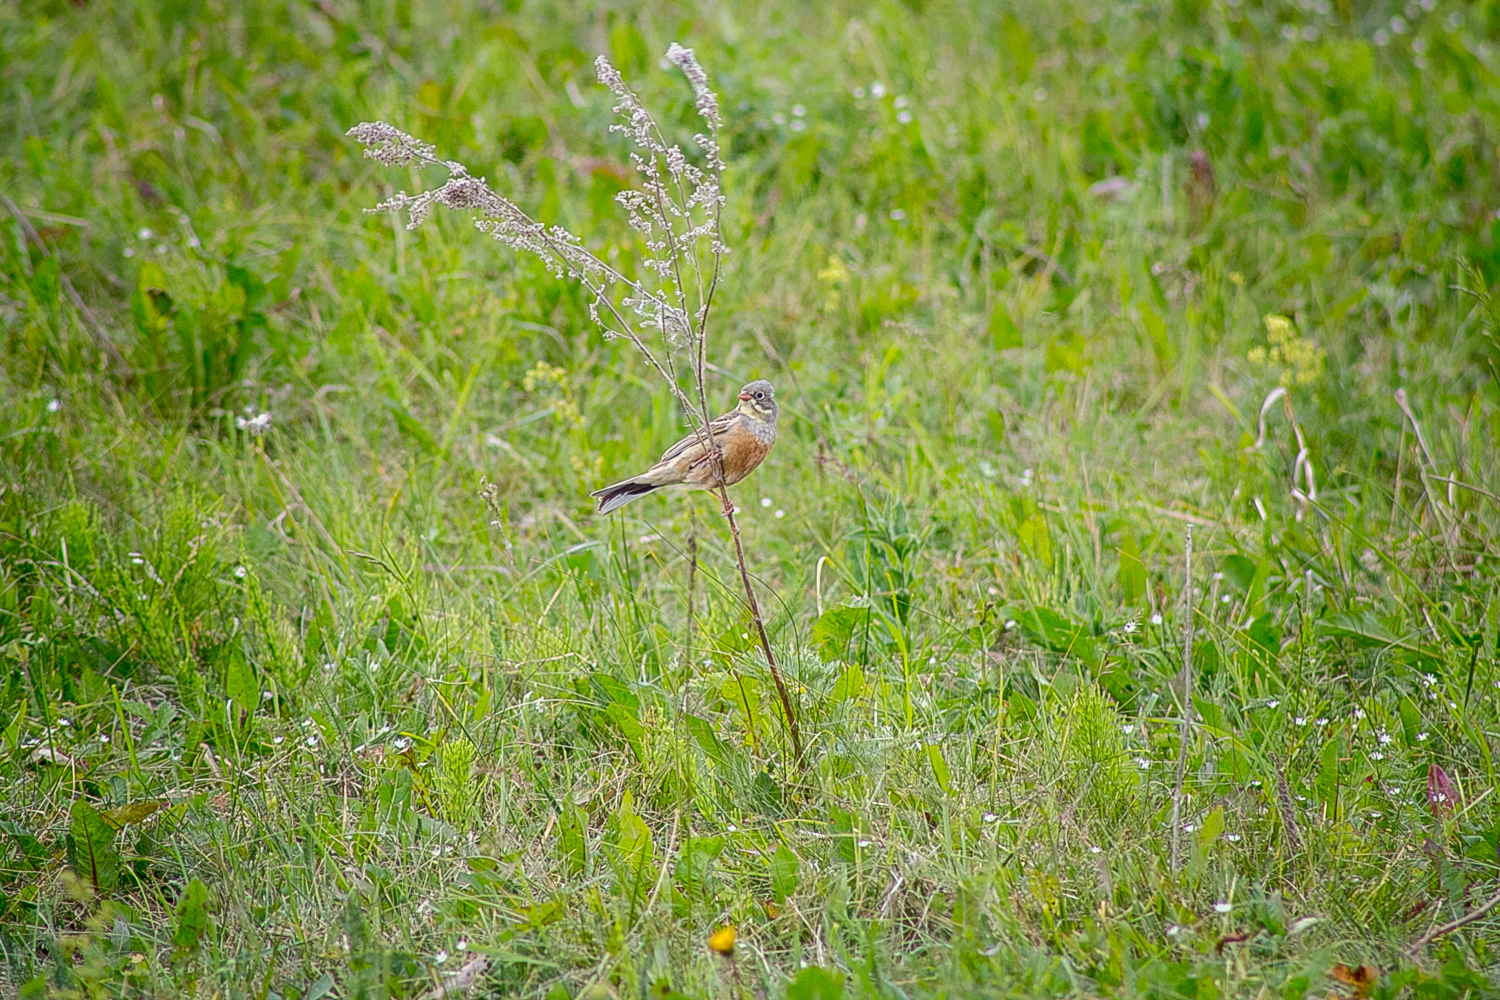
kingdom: Animalia
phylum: Chordata
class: Aves
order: Passeriformes
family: Emberizidae
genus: Emberiza
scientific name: Emberiza hortulana
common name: Ortolan bunting
